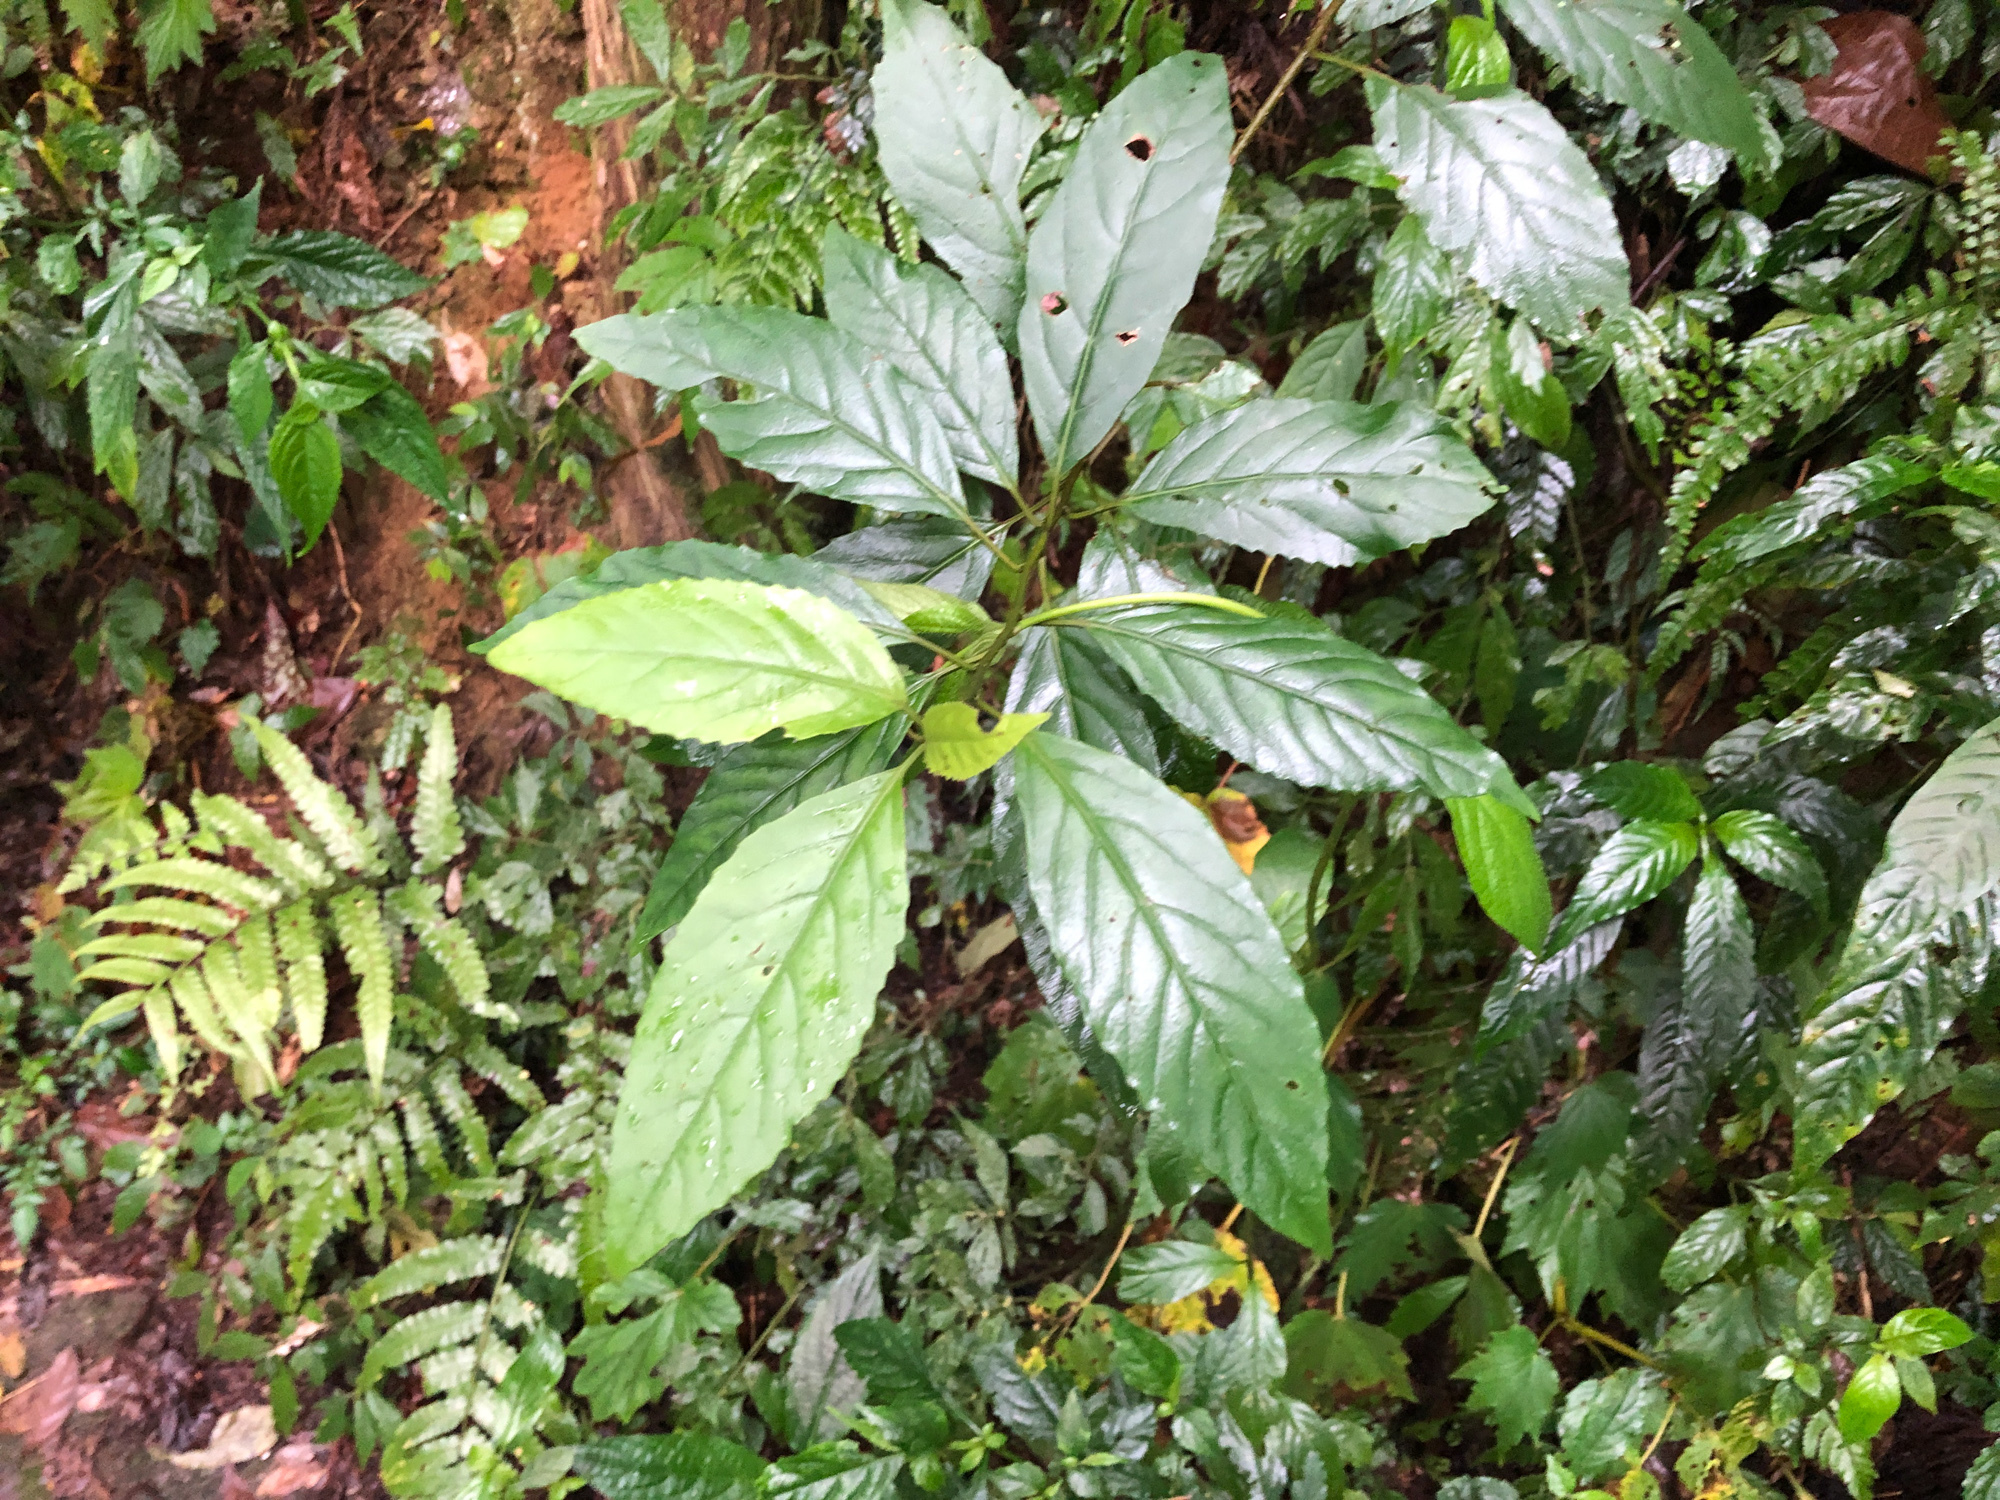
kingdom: Plantae
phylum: Tracheophyta
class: Magnoliopsida
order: Ericales
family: Primulaceae
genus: Maesa
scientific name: Maesa perlaria
